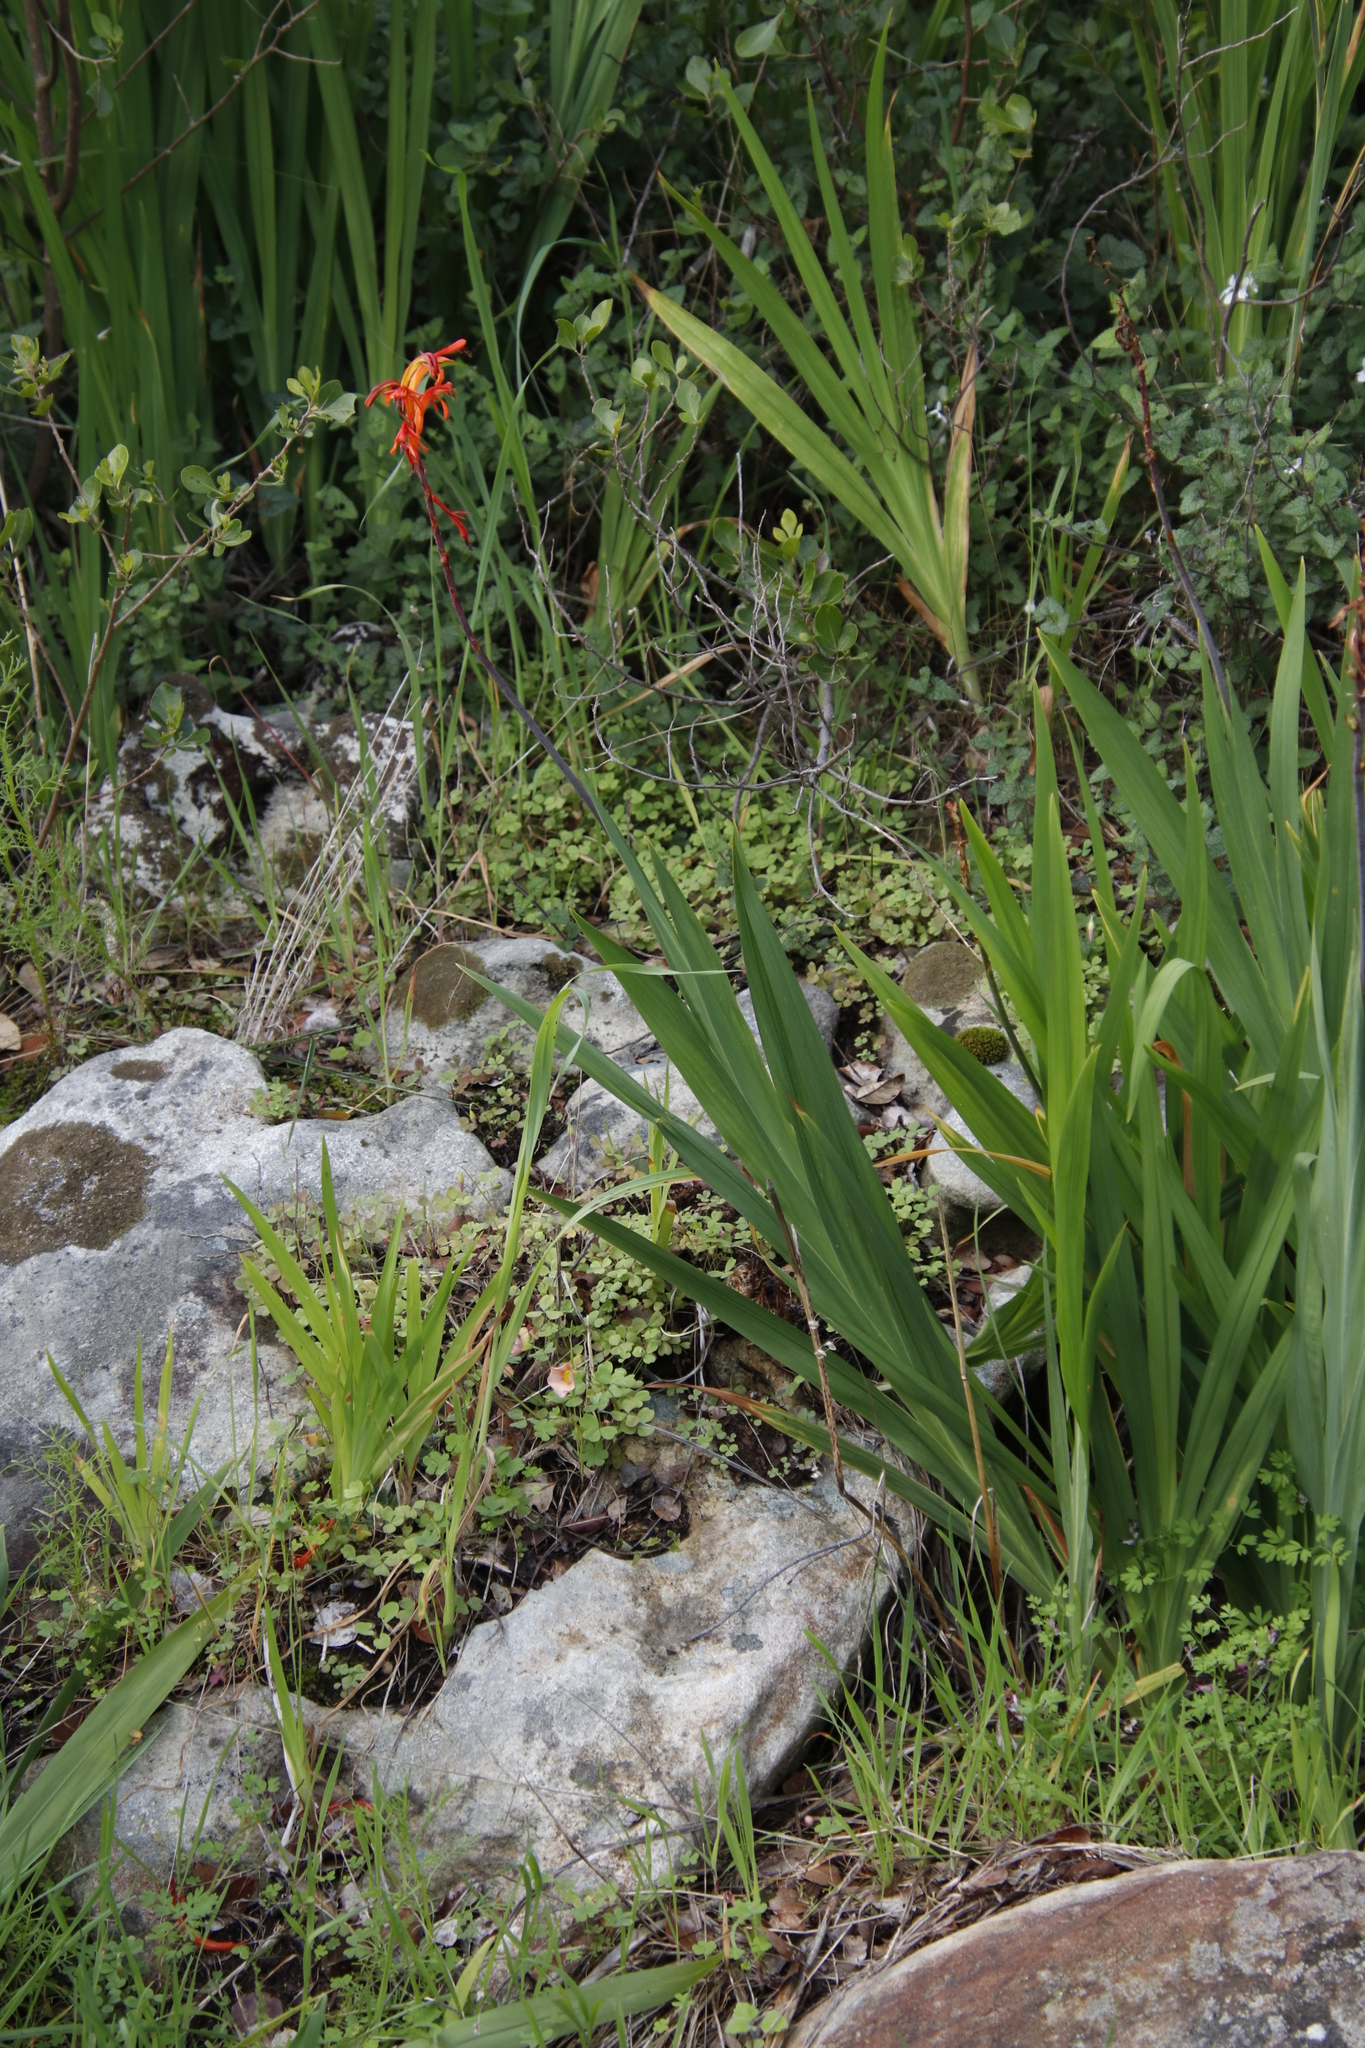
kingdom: Plantae
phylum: Tracheophyta
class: Liliopsida
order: Asparagales
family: Iridaceae
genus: Chasmanthe
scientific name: Chasmanthe aethiopica
